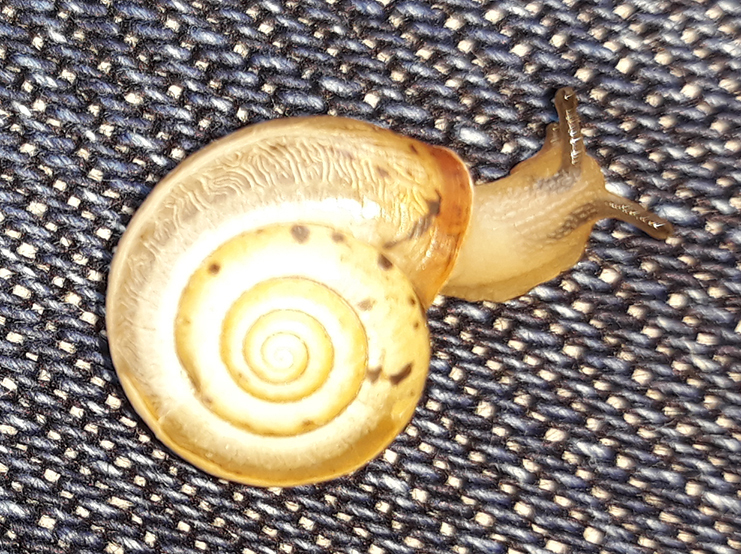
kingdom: Animalia
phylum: Mollusca
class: Gastropoda
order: Stylommatophora
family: Hygromiidae
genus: Monacha
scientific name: Monacha cartusiana
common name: Carthusian snail
